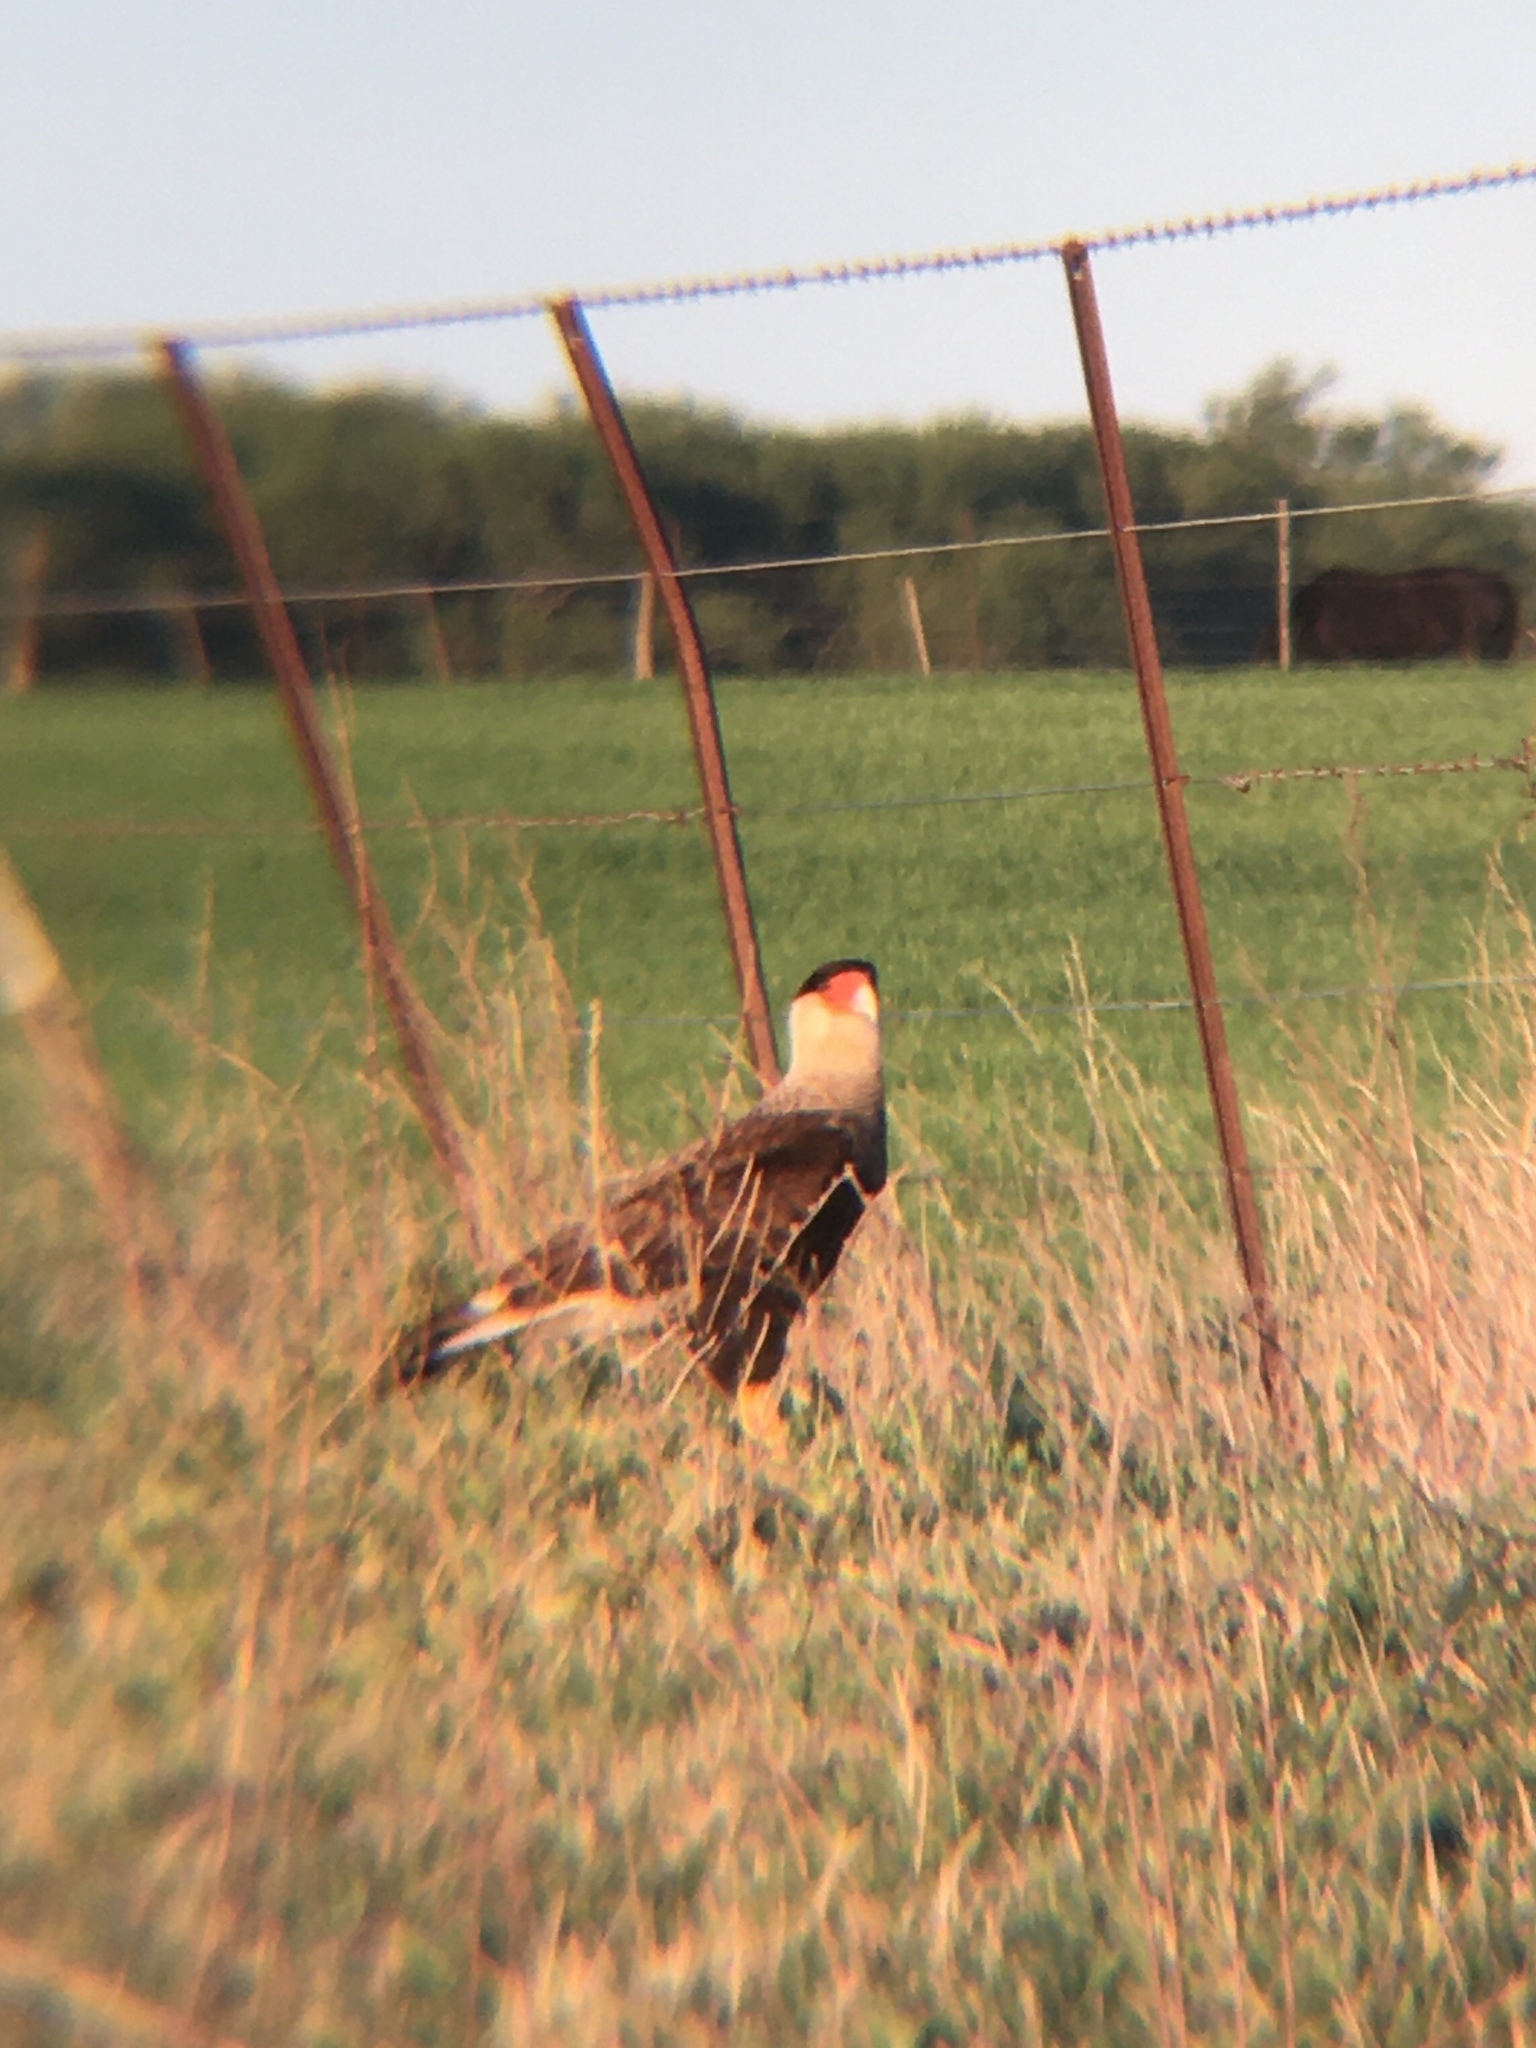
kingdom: Animalia
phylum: Chordata
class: Aves
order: Falconiformes
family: Falconidae
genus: Caracara
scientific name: Caracara plancus
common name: Southern caracara
